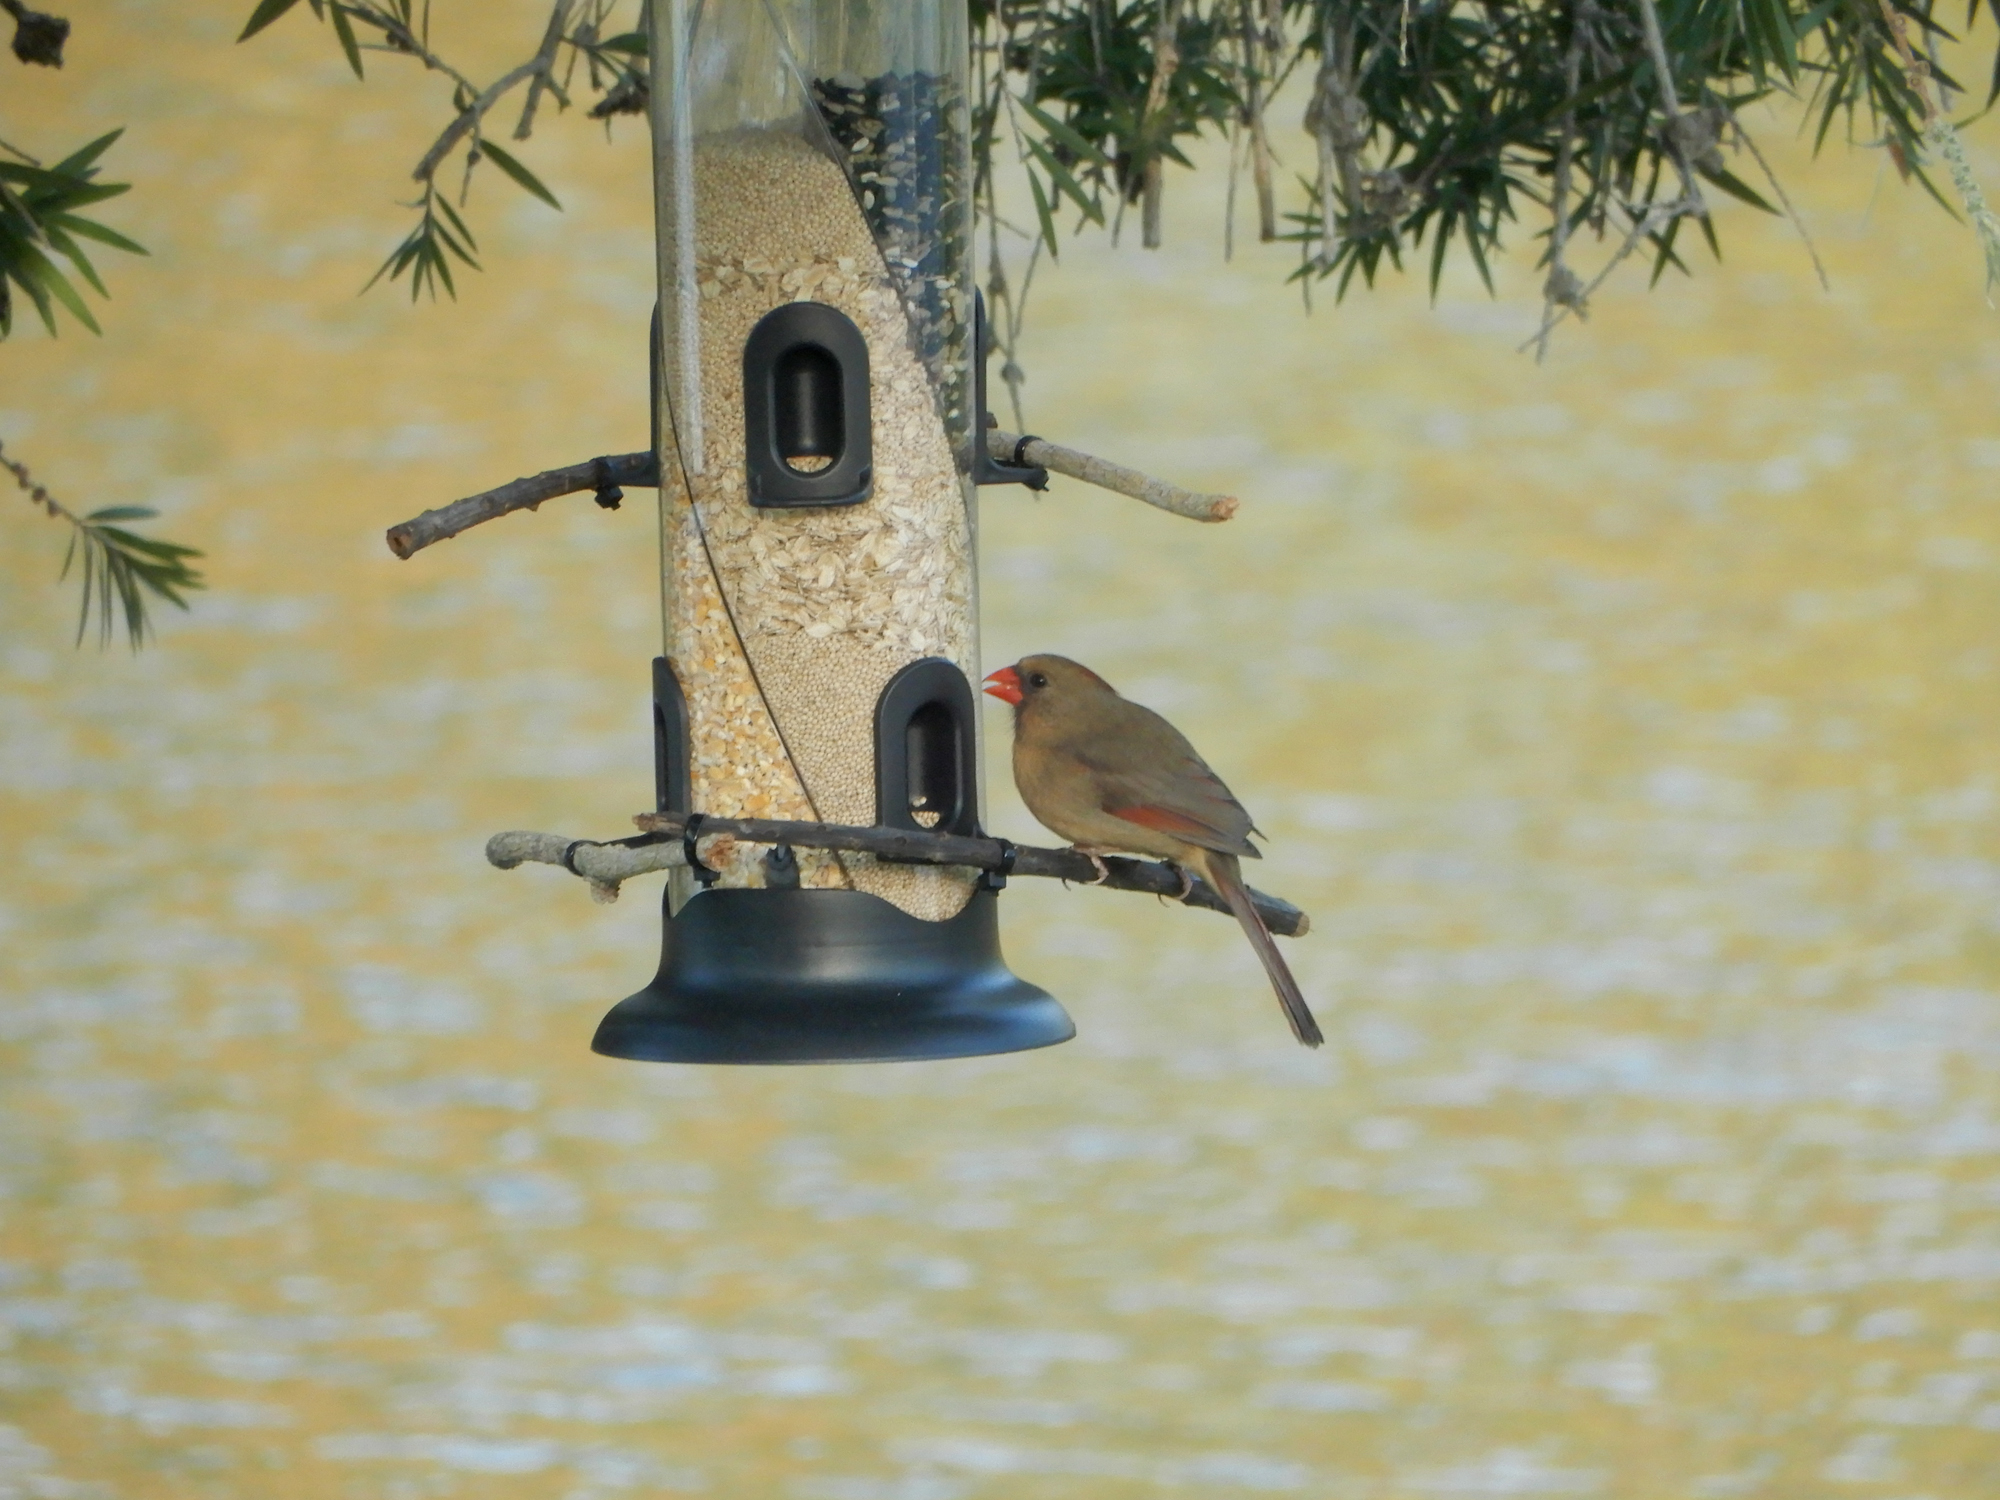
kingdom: Animalia
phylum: Chordata
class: Aves
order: Passeriformes
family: Cardinalidae
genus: Cardinalis
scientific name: Cardinalis cardinalis
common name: Northern cardinal
